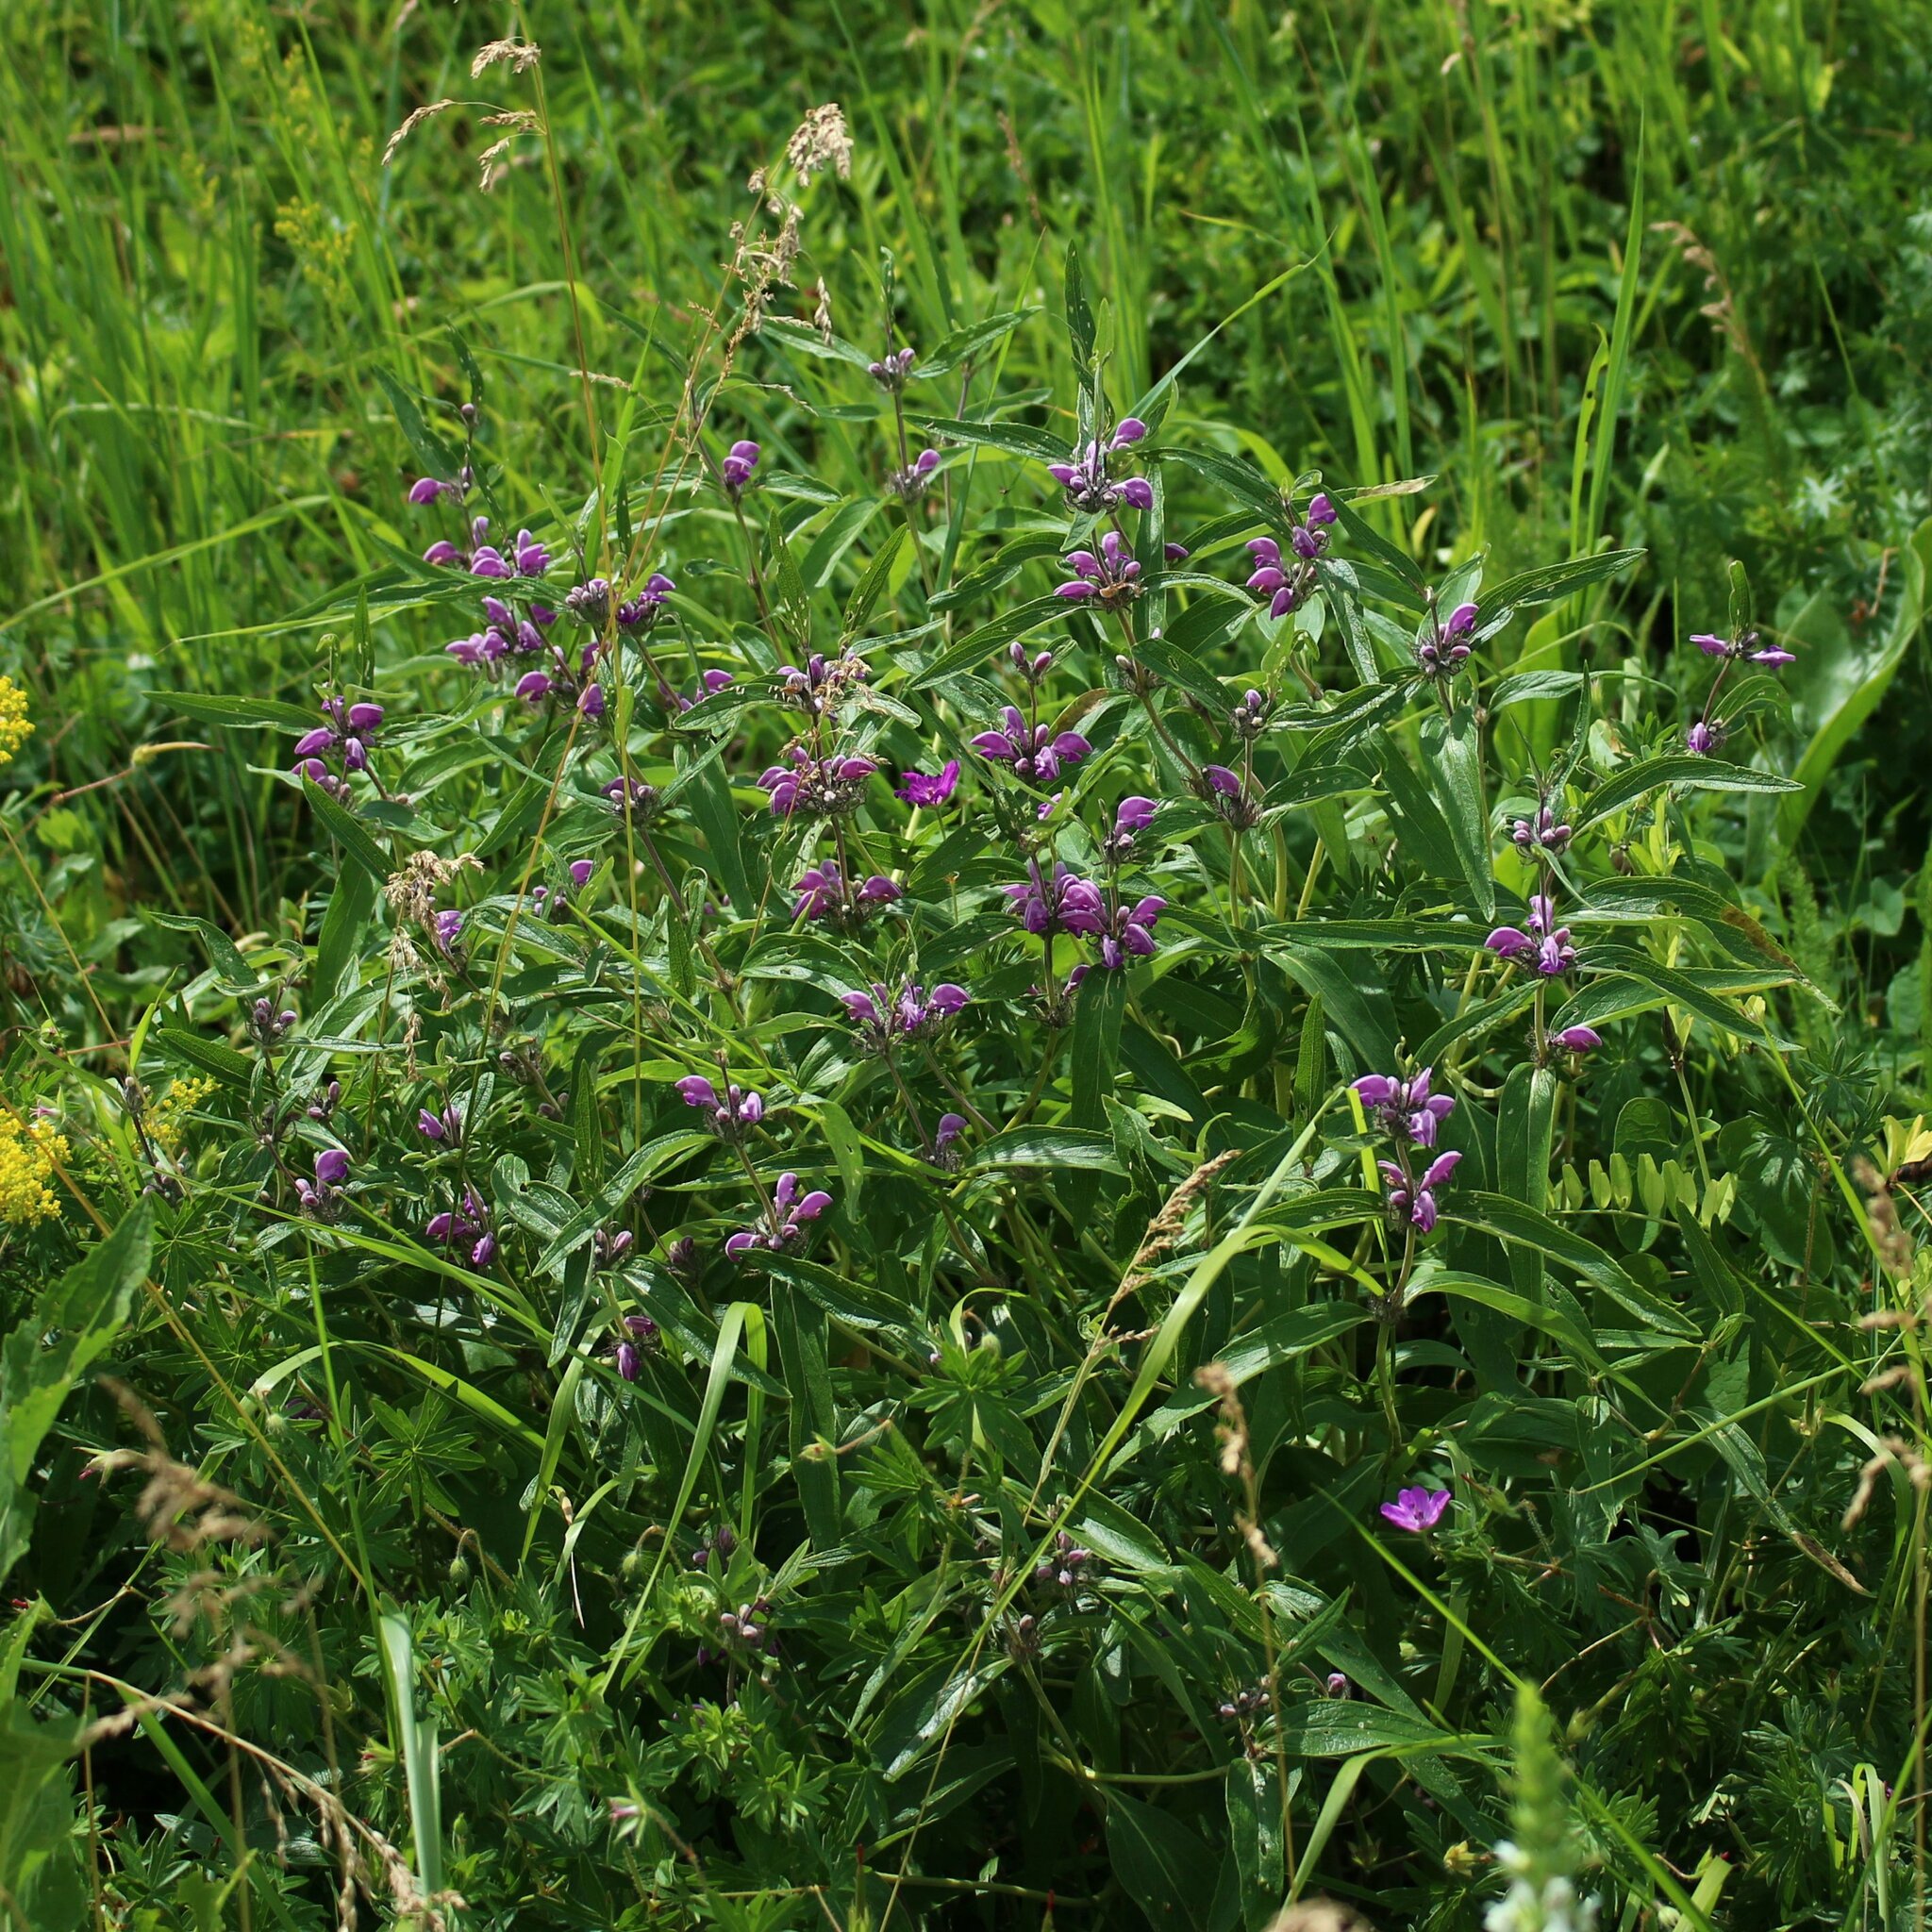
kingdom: Plantae
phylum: Tracheophyta
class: Magnoliopsida
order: Lamiales
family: Lamiaceae
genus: Phlomis
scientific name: Phlomis herba-venti
